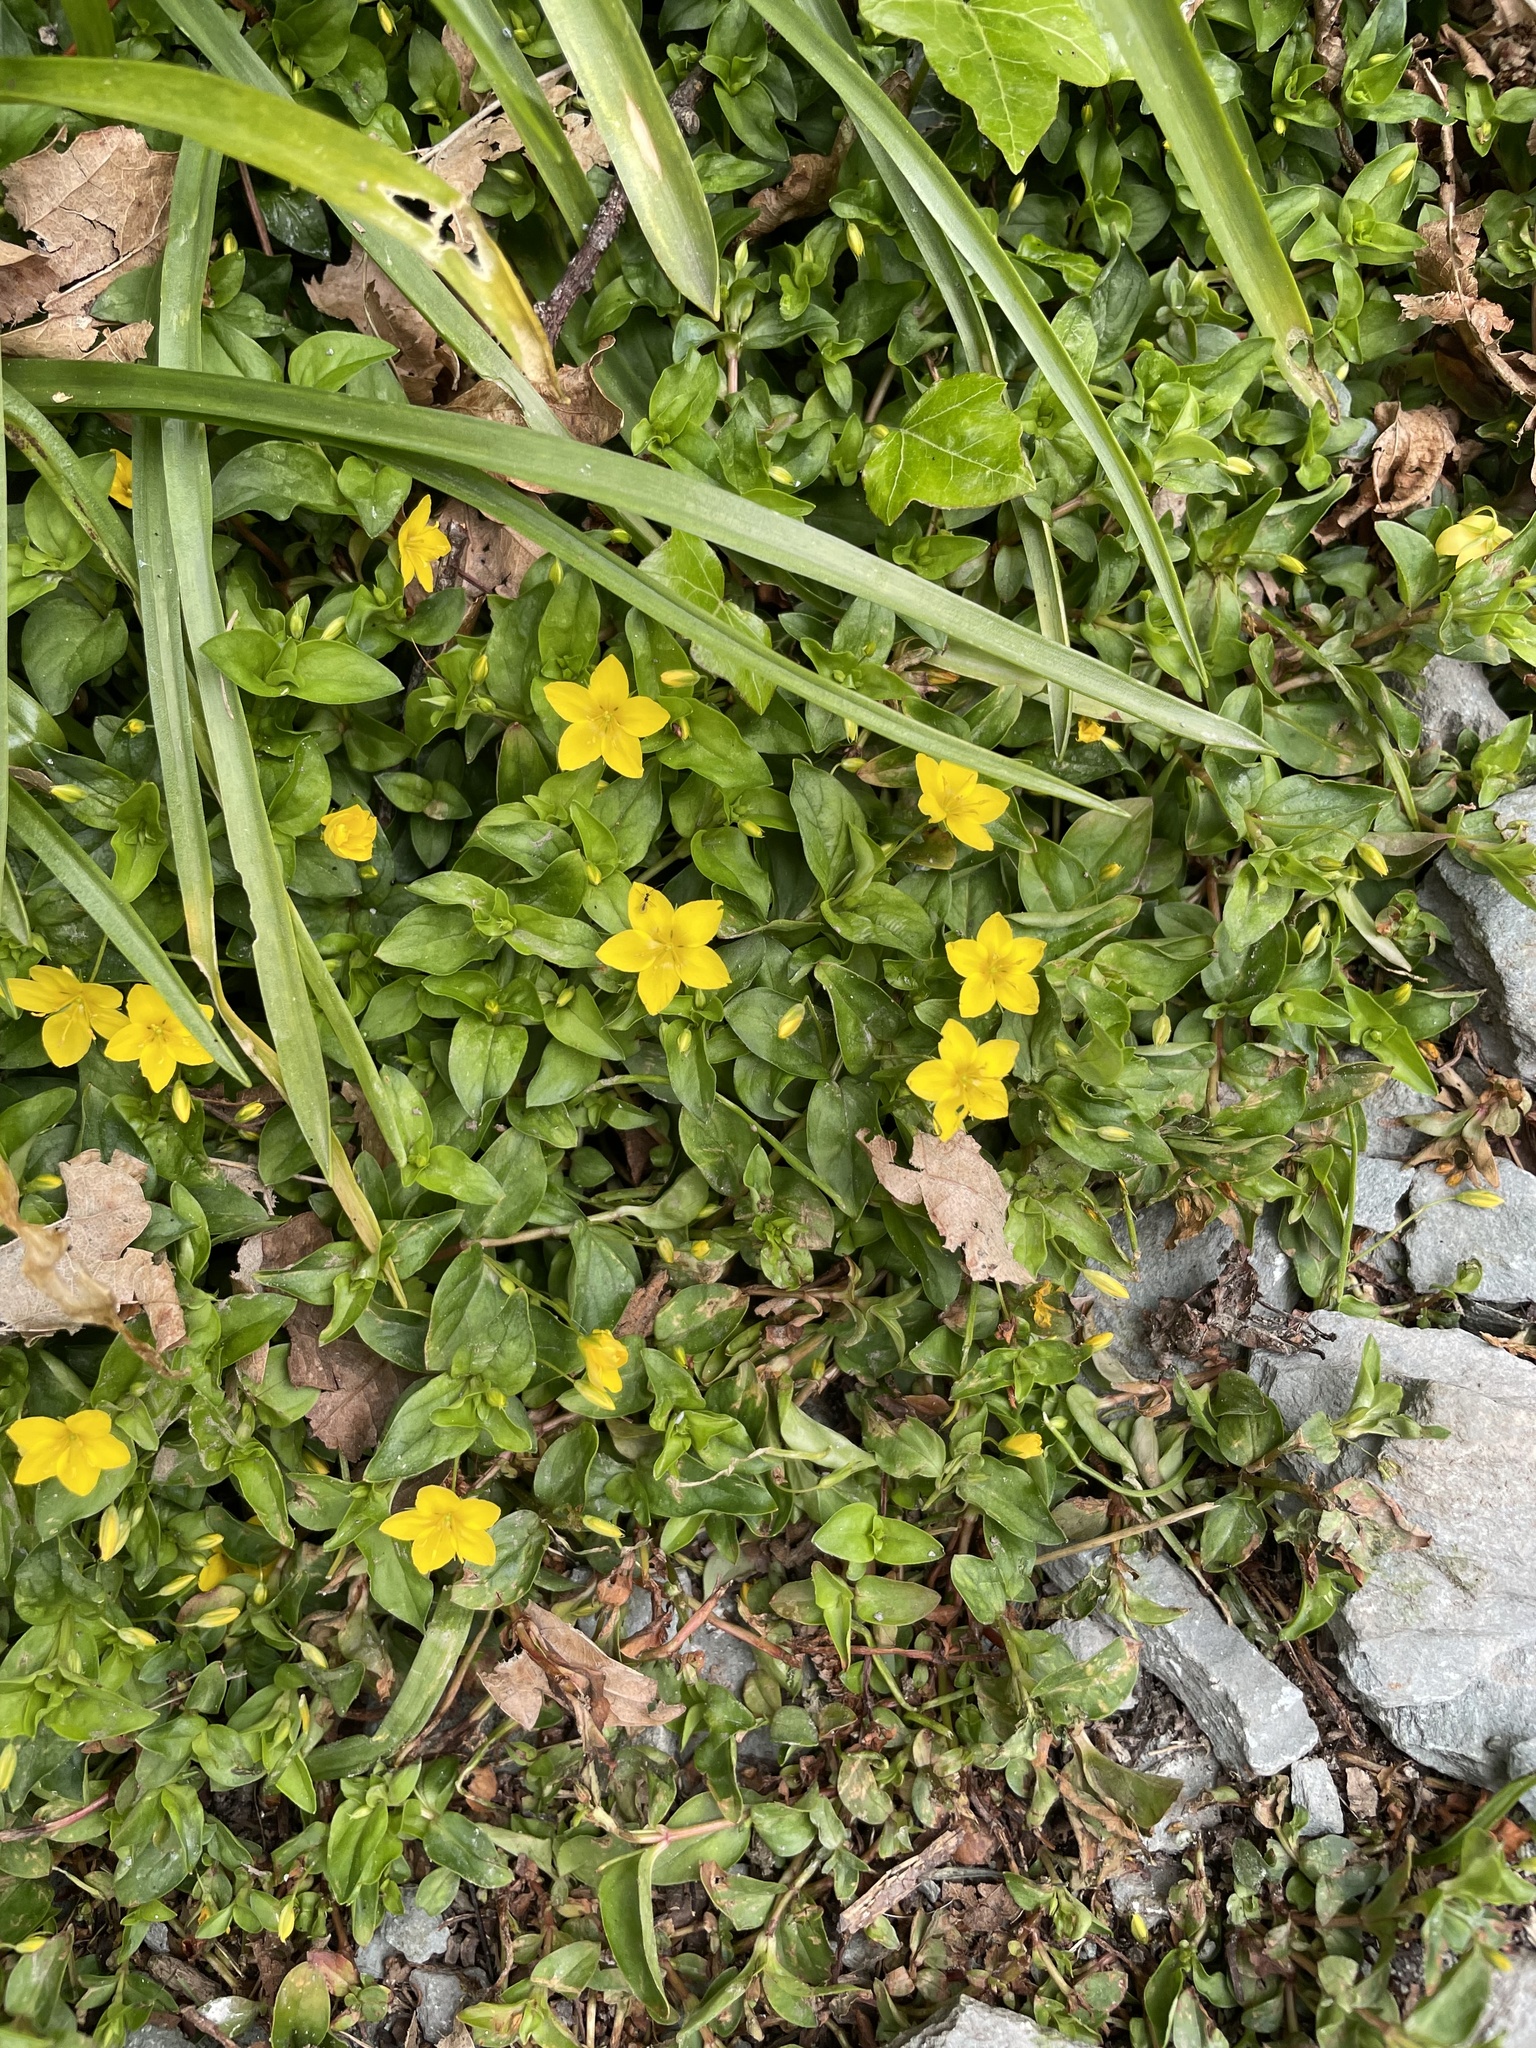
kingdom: Plantae
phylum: Tracheophyta
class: Magnoliopsida
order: Ericales
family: Primulaceae
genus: Lysimachia
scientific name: Lysimachia nemorum
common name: Yellow pimpernel
